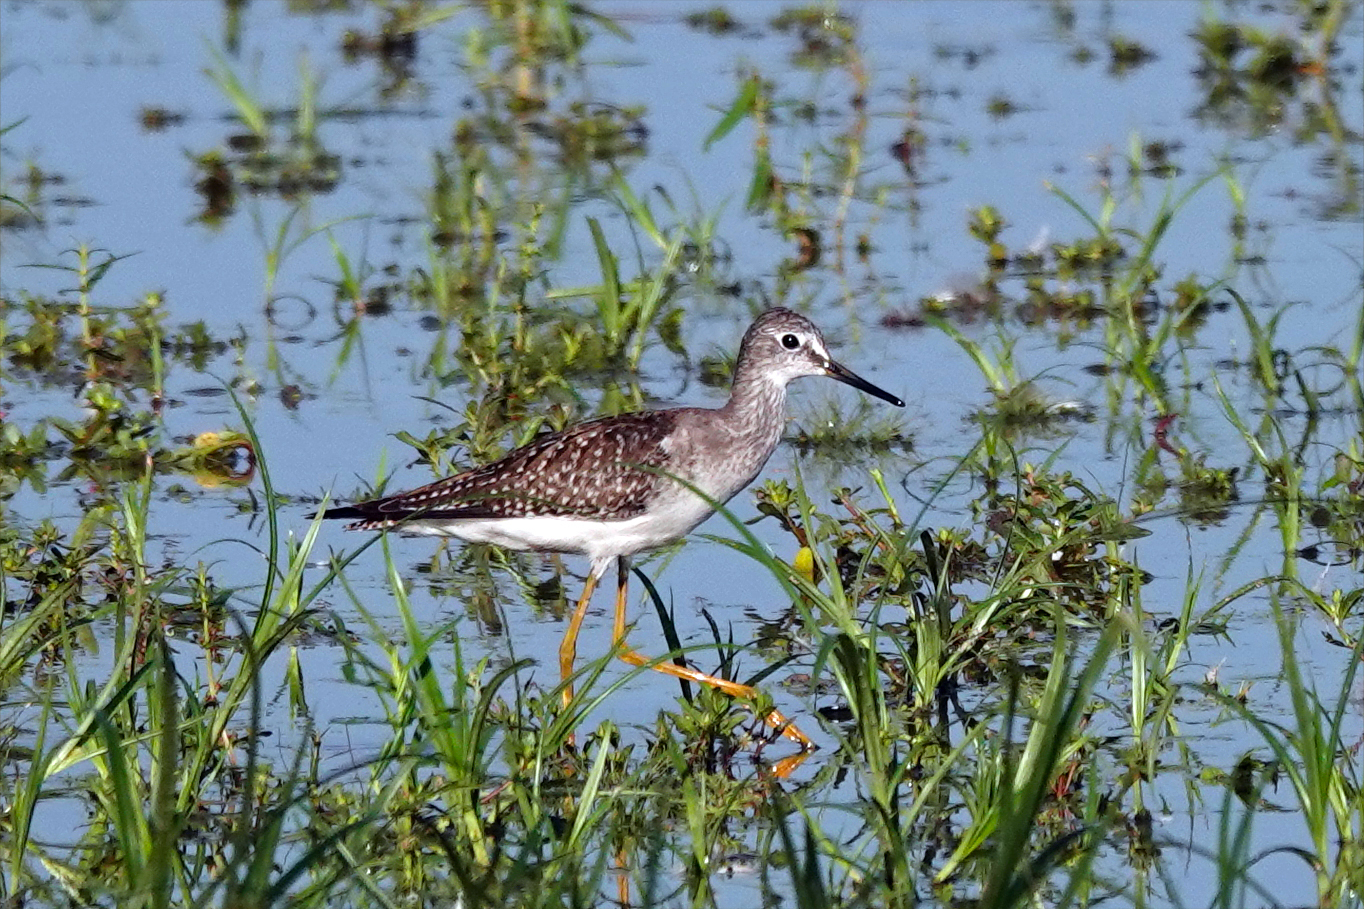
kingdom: Animalia
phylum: Chordata
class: Aves
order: Charadriiformes
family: Scolopacidae
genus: Tringa
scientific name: Tringa flavipes
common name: Lesser yellowlegs
